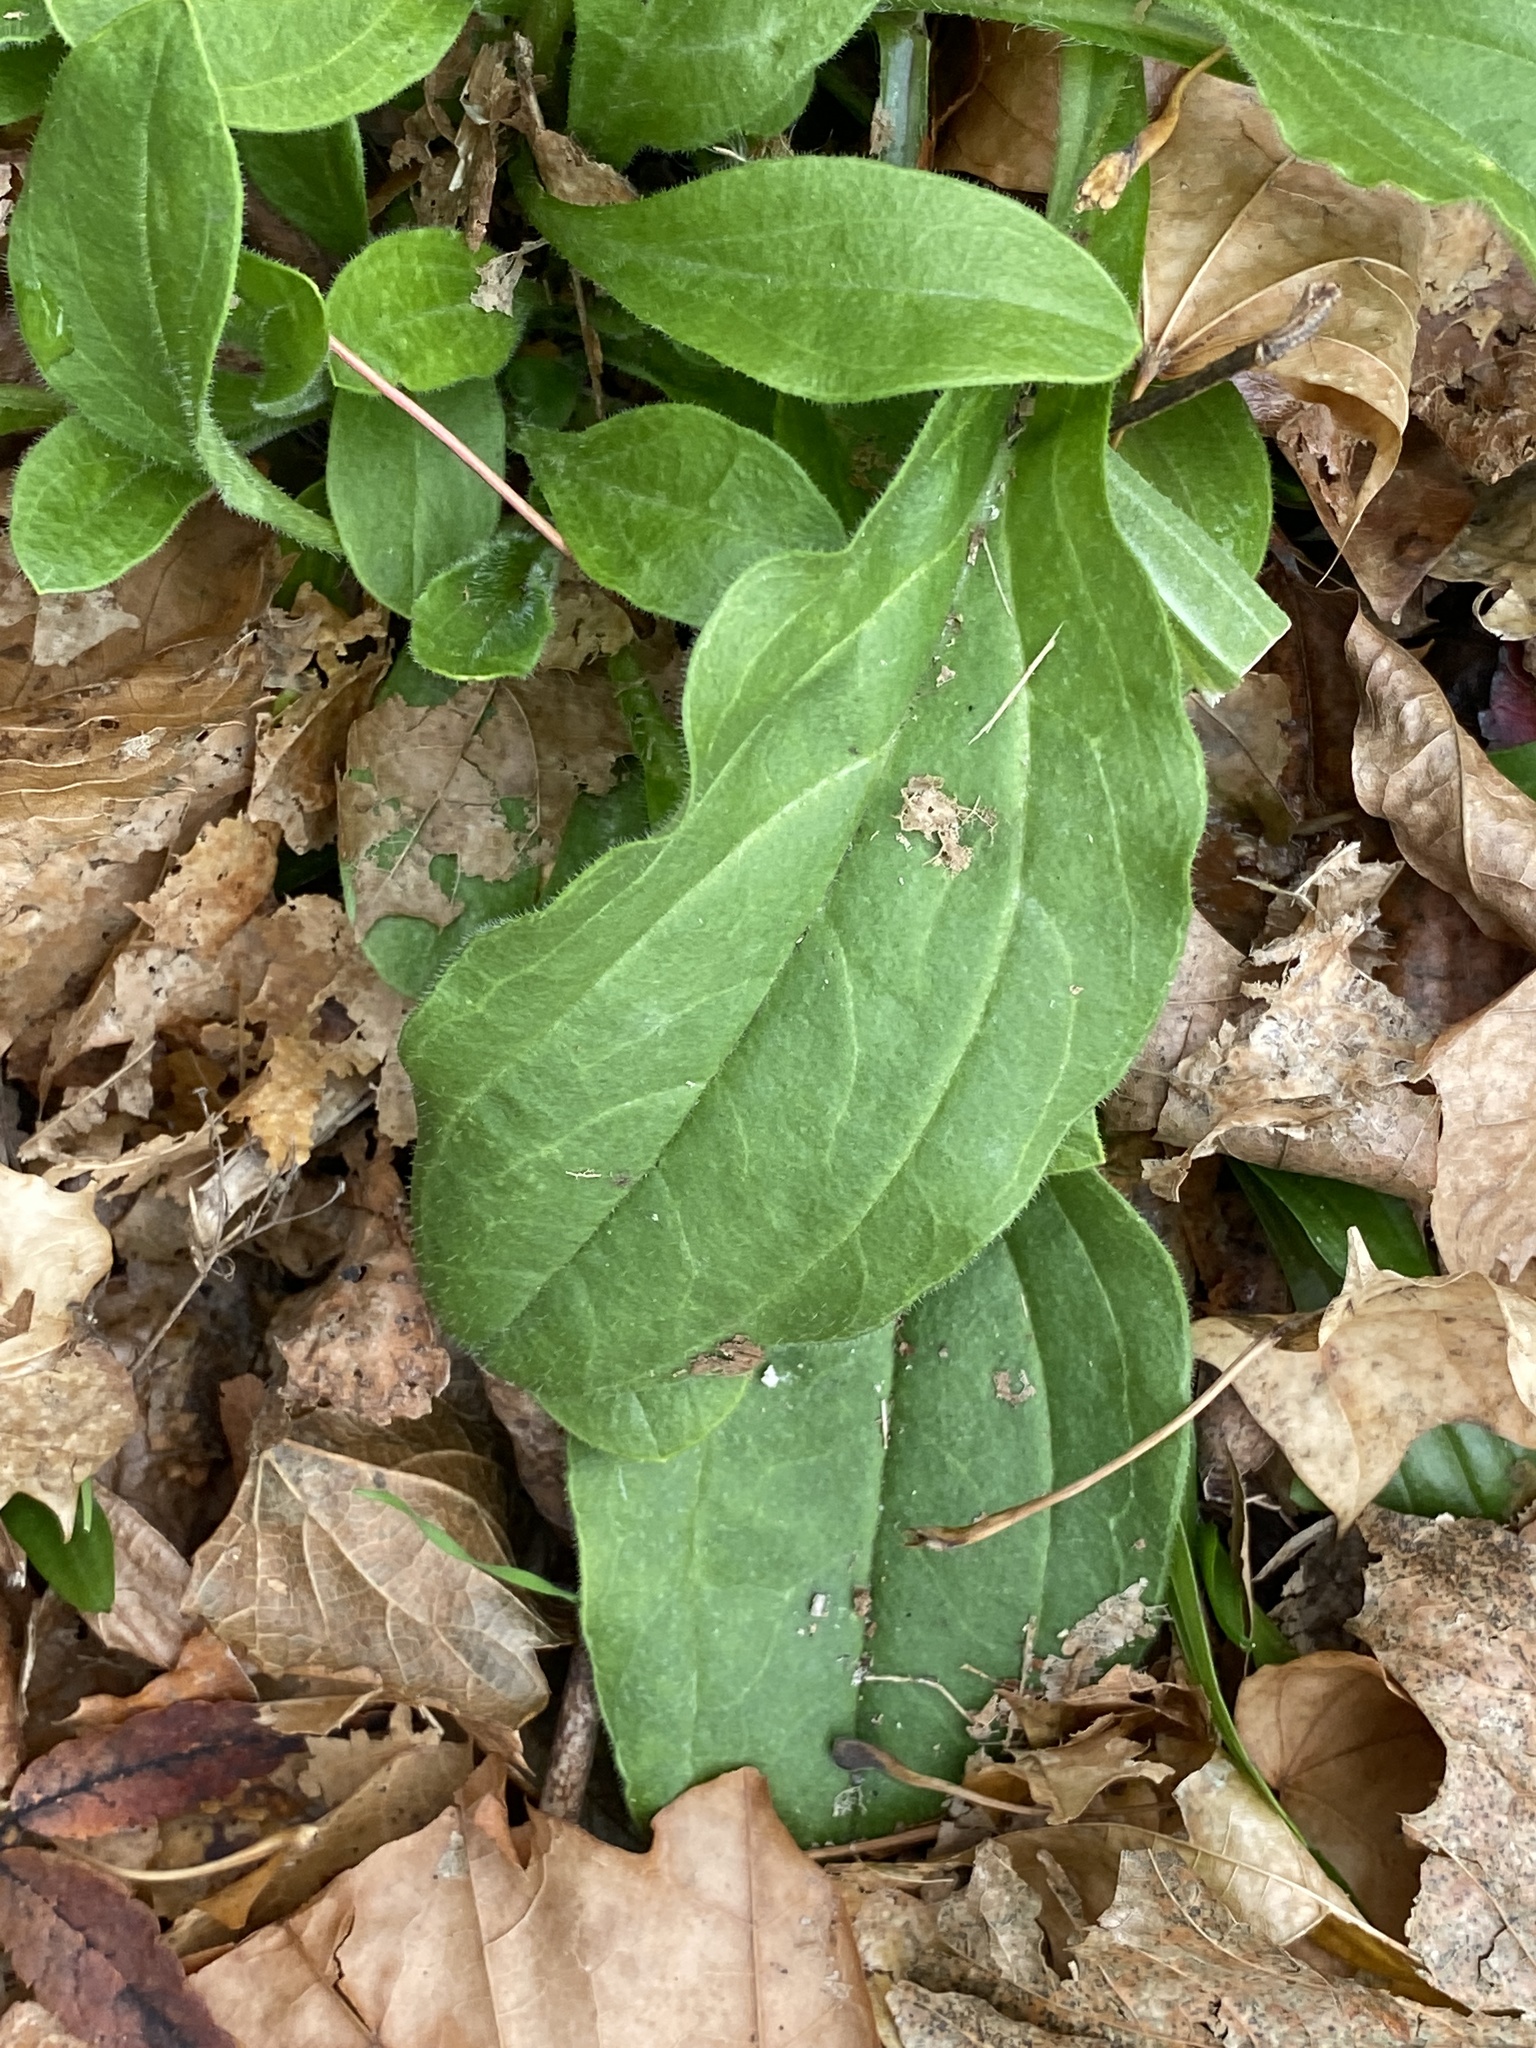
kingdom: Plantae
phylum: Tracheophyta
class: Magnoliopsida
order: Caryophyllales
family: Caryophyllaceae
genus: Silene
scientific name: Silene latifolia
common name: White campion
